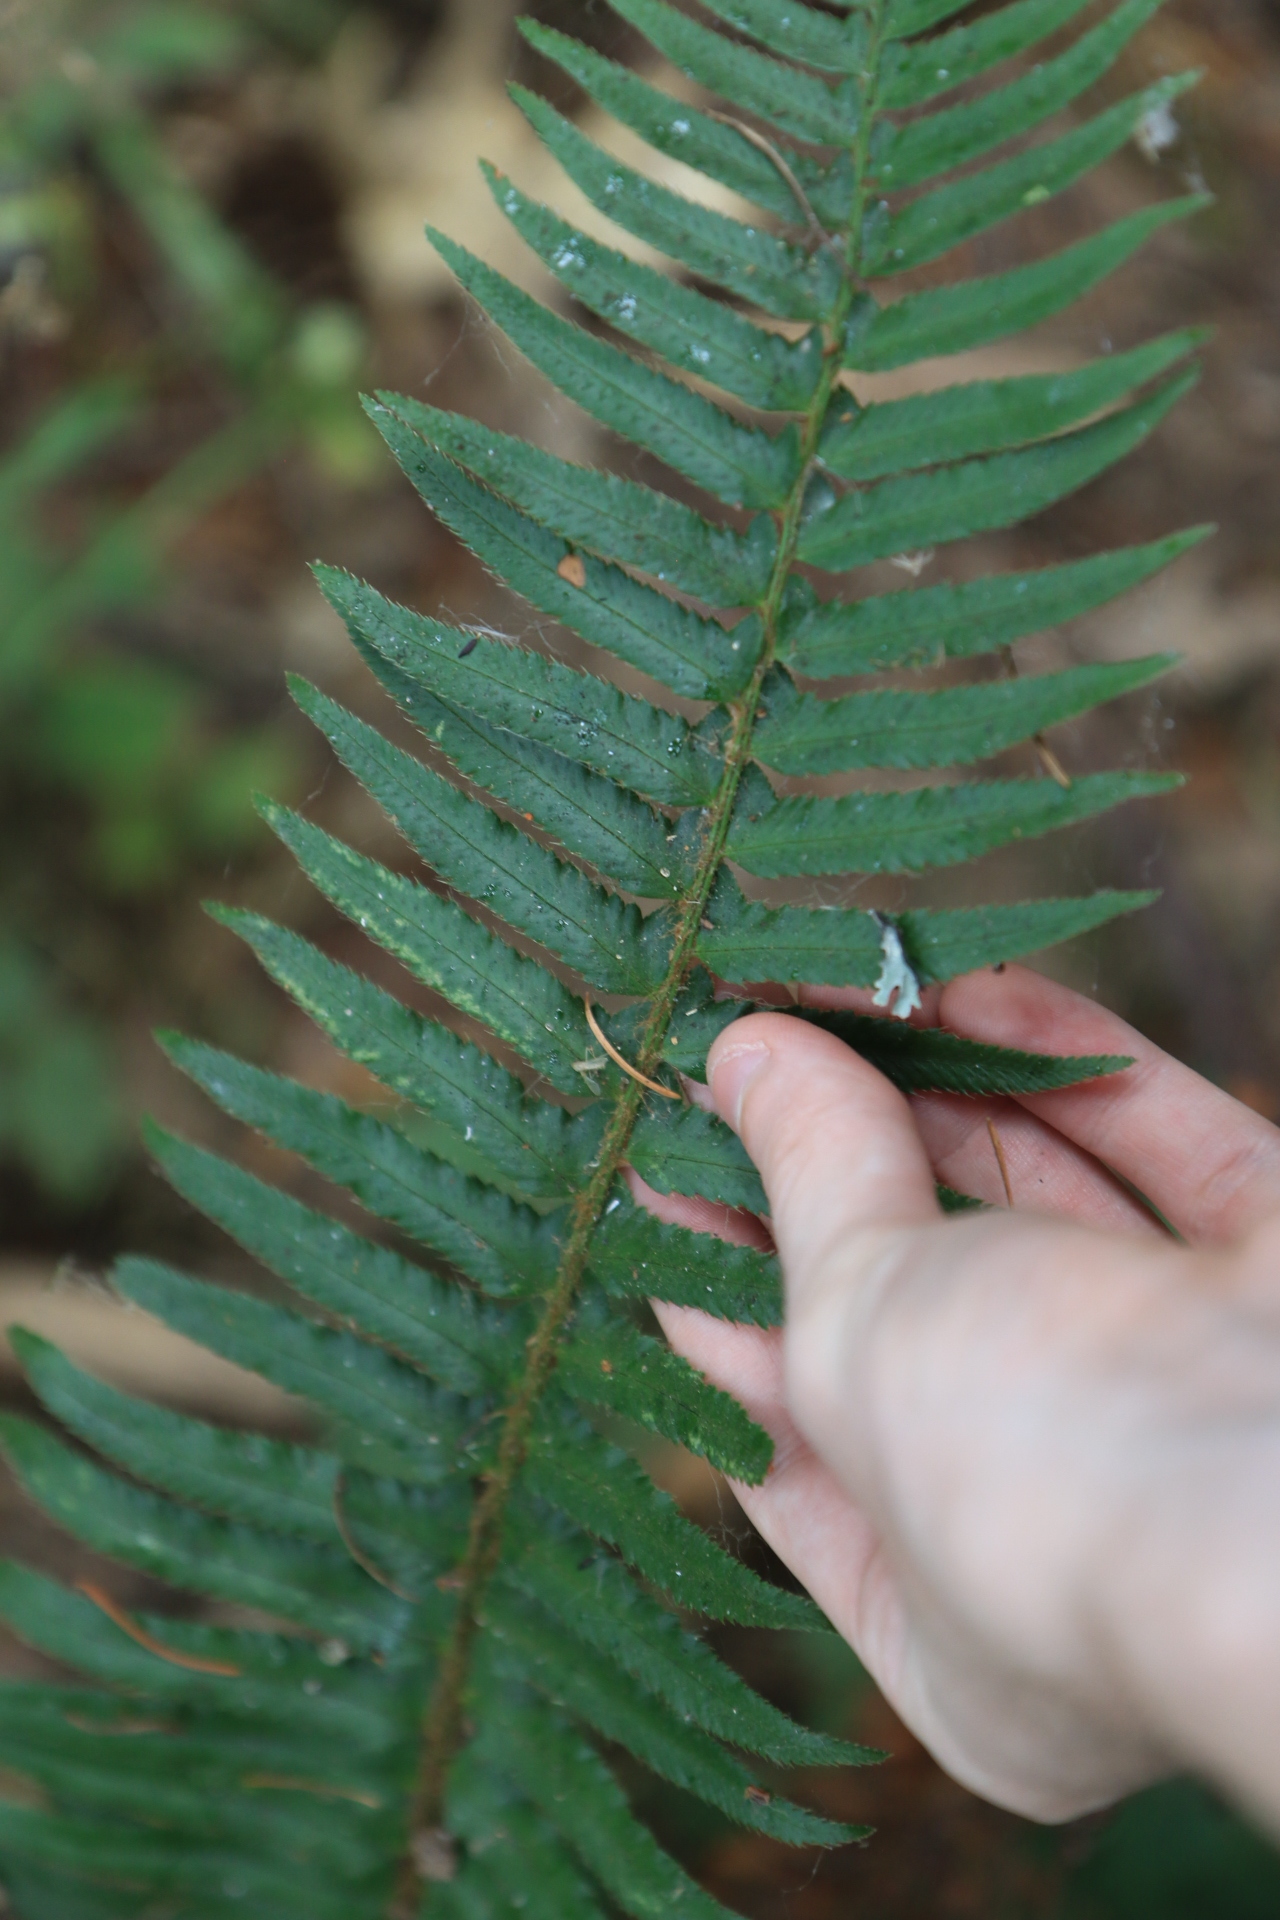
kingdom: Plantae
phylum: Tracheophyta
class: Polypodiopsida
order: Polypodiales
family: Dryopteridaceae
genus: Polystichum
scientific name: Polystichum munitum
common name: Western sword-fern
